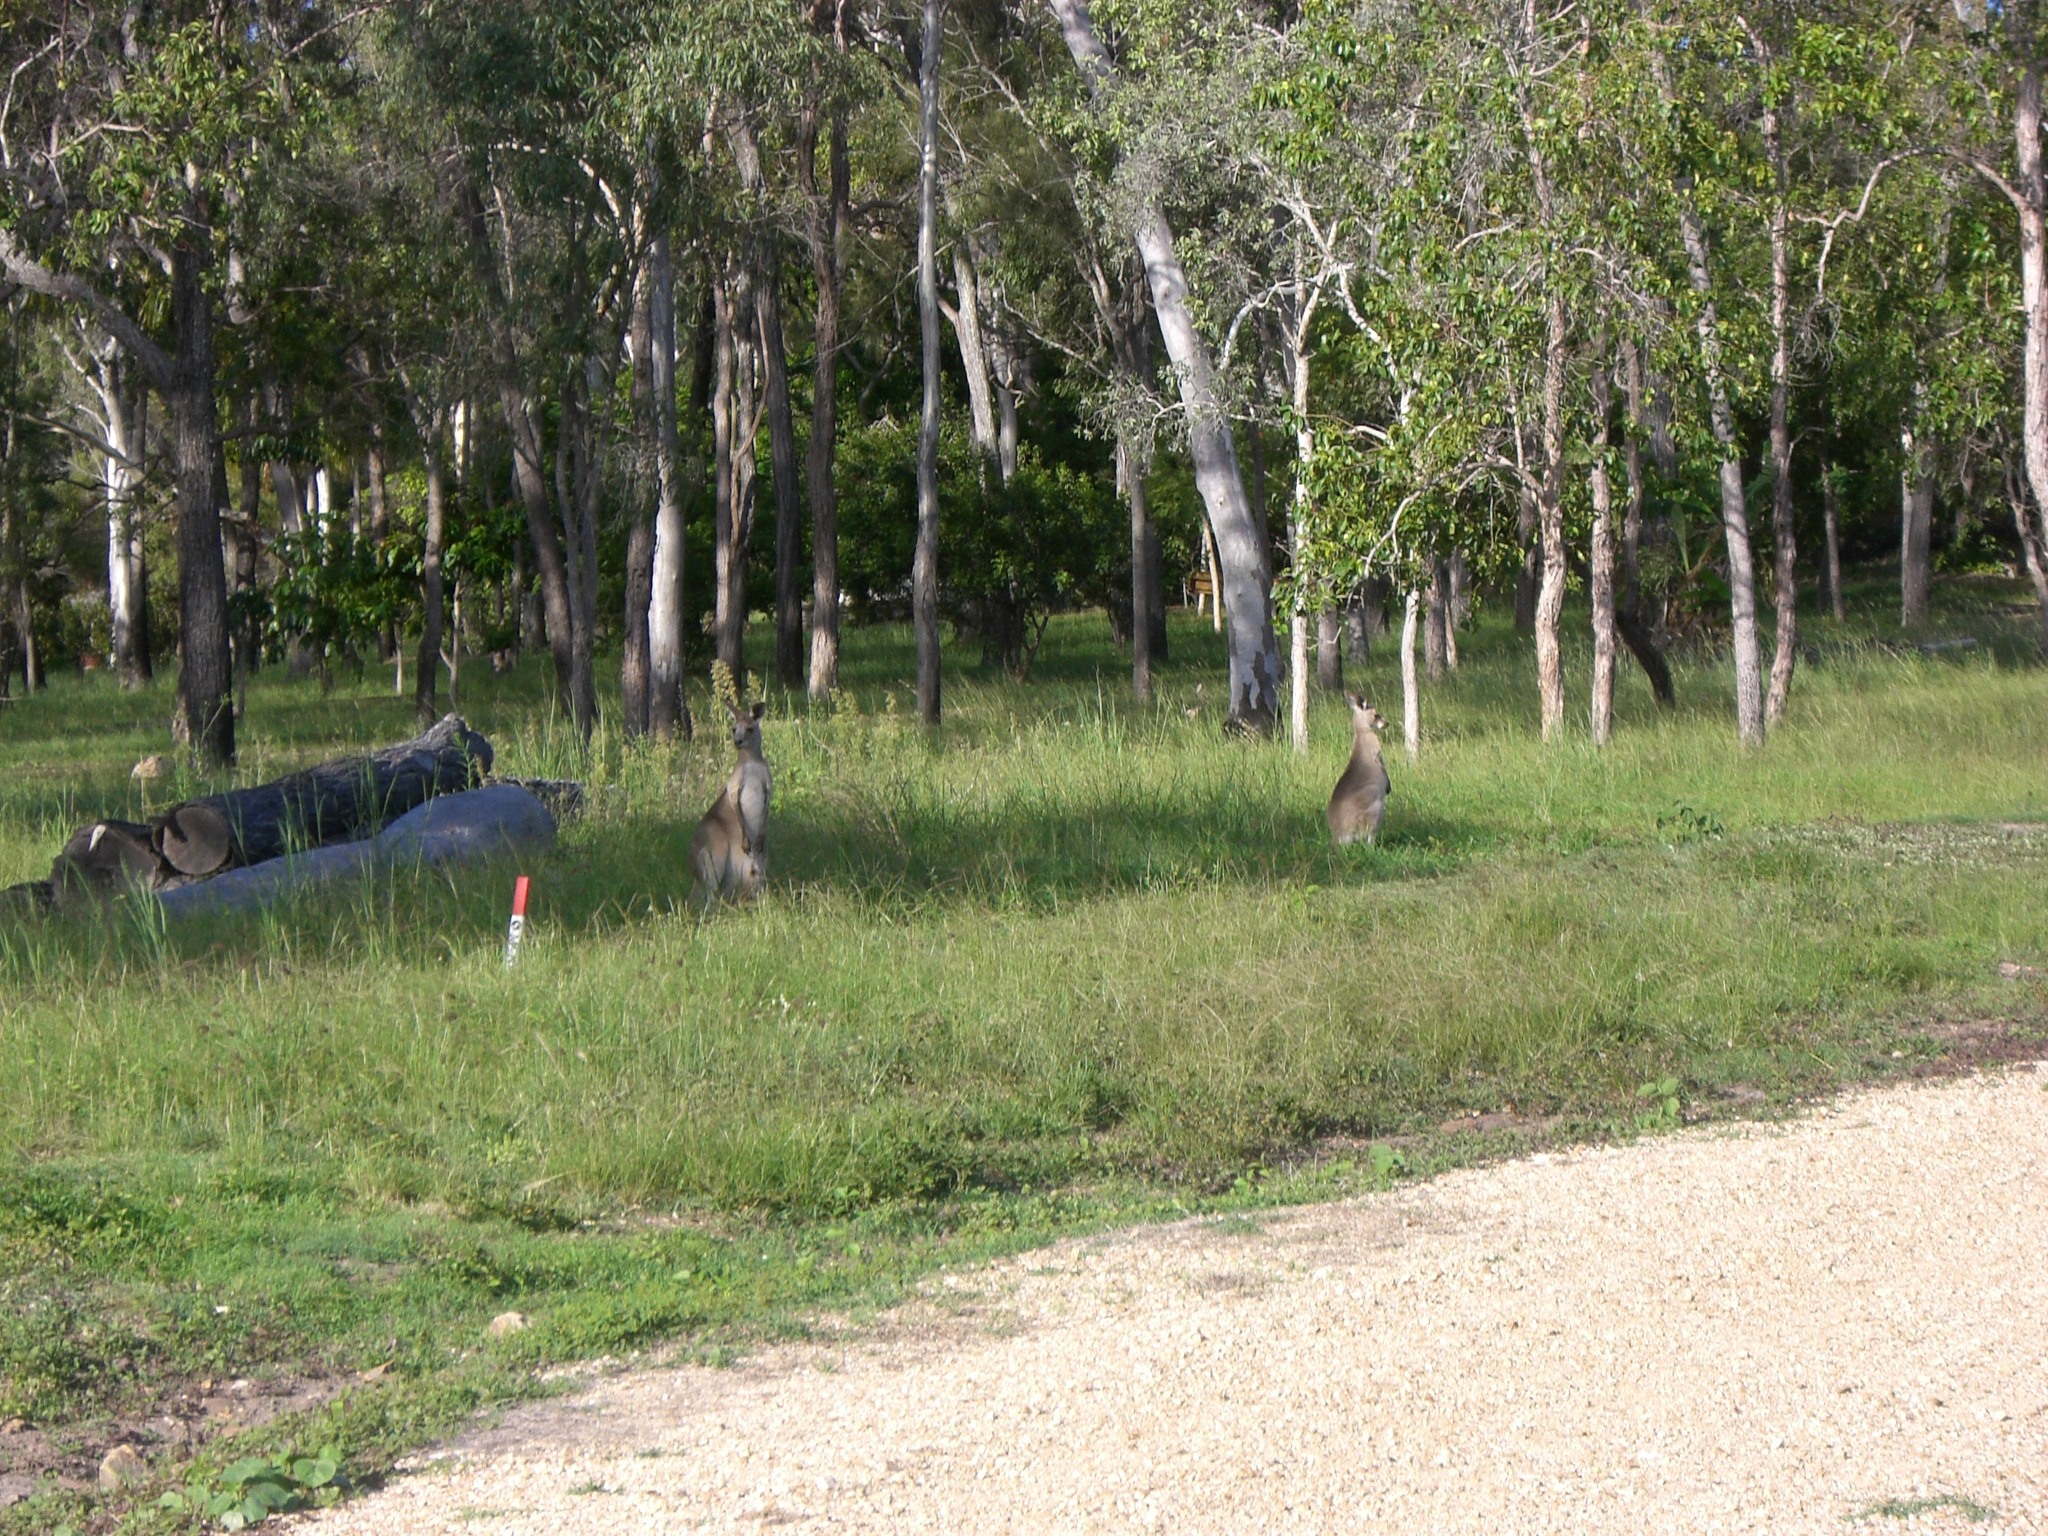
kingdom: Animalia
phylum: Chordata
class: Mammalia
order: Diprotodontia
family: Macropodidae
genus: Macropus
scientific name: Macropus giganteus
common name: Eastern grey kangaroo
